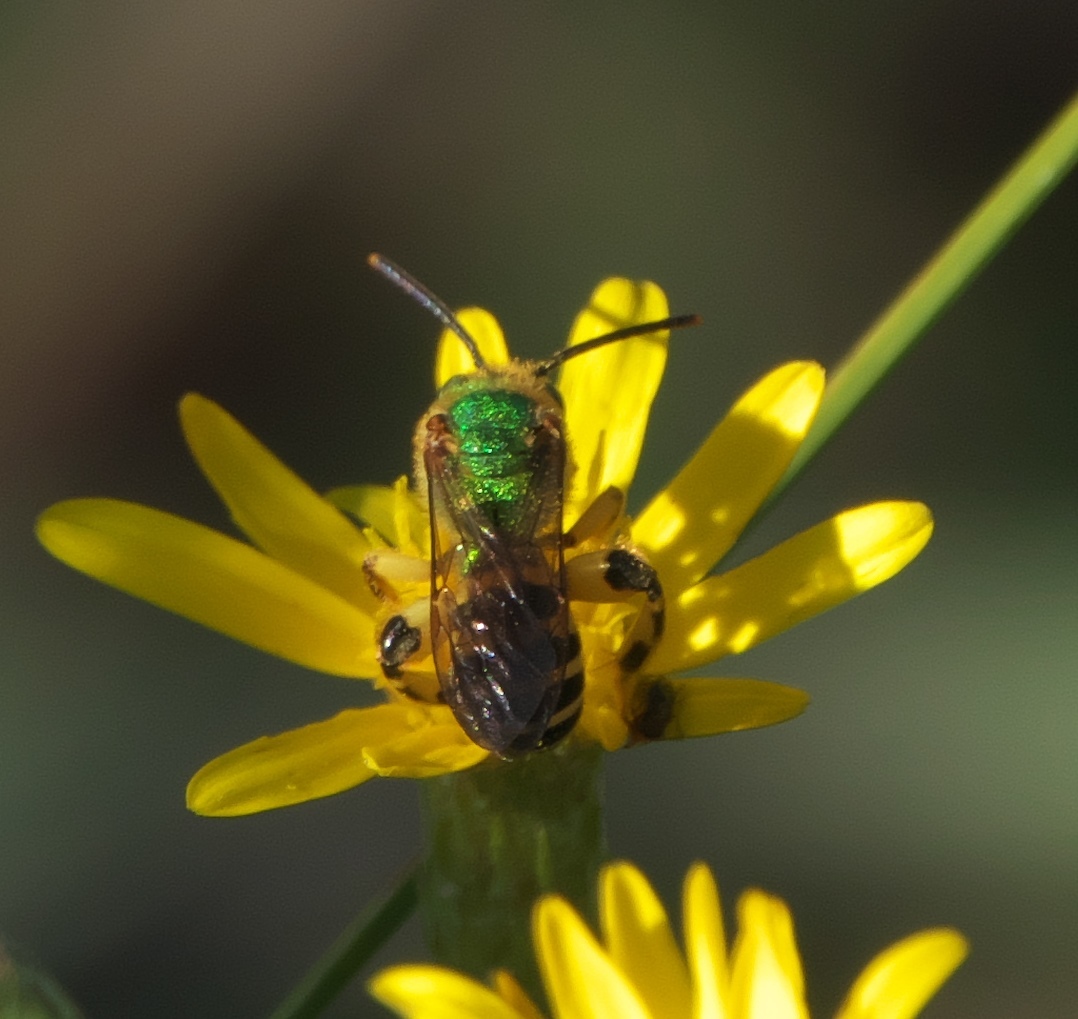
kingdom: Animalia
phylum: Arthropoda
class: Insecta
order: Hymenoptera
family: Halictidae
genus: Agapostemon
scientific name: Agapostemon splendens
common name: Brown-winged striped sweat bee
